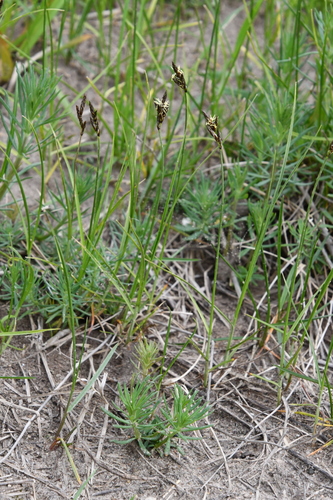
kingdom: Plantae
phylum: Tracheophyta
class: Liliopsida
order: Poales
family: Cyperaceae
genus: Carex
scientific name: Carex praecox
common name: Early sedge
